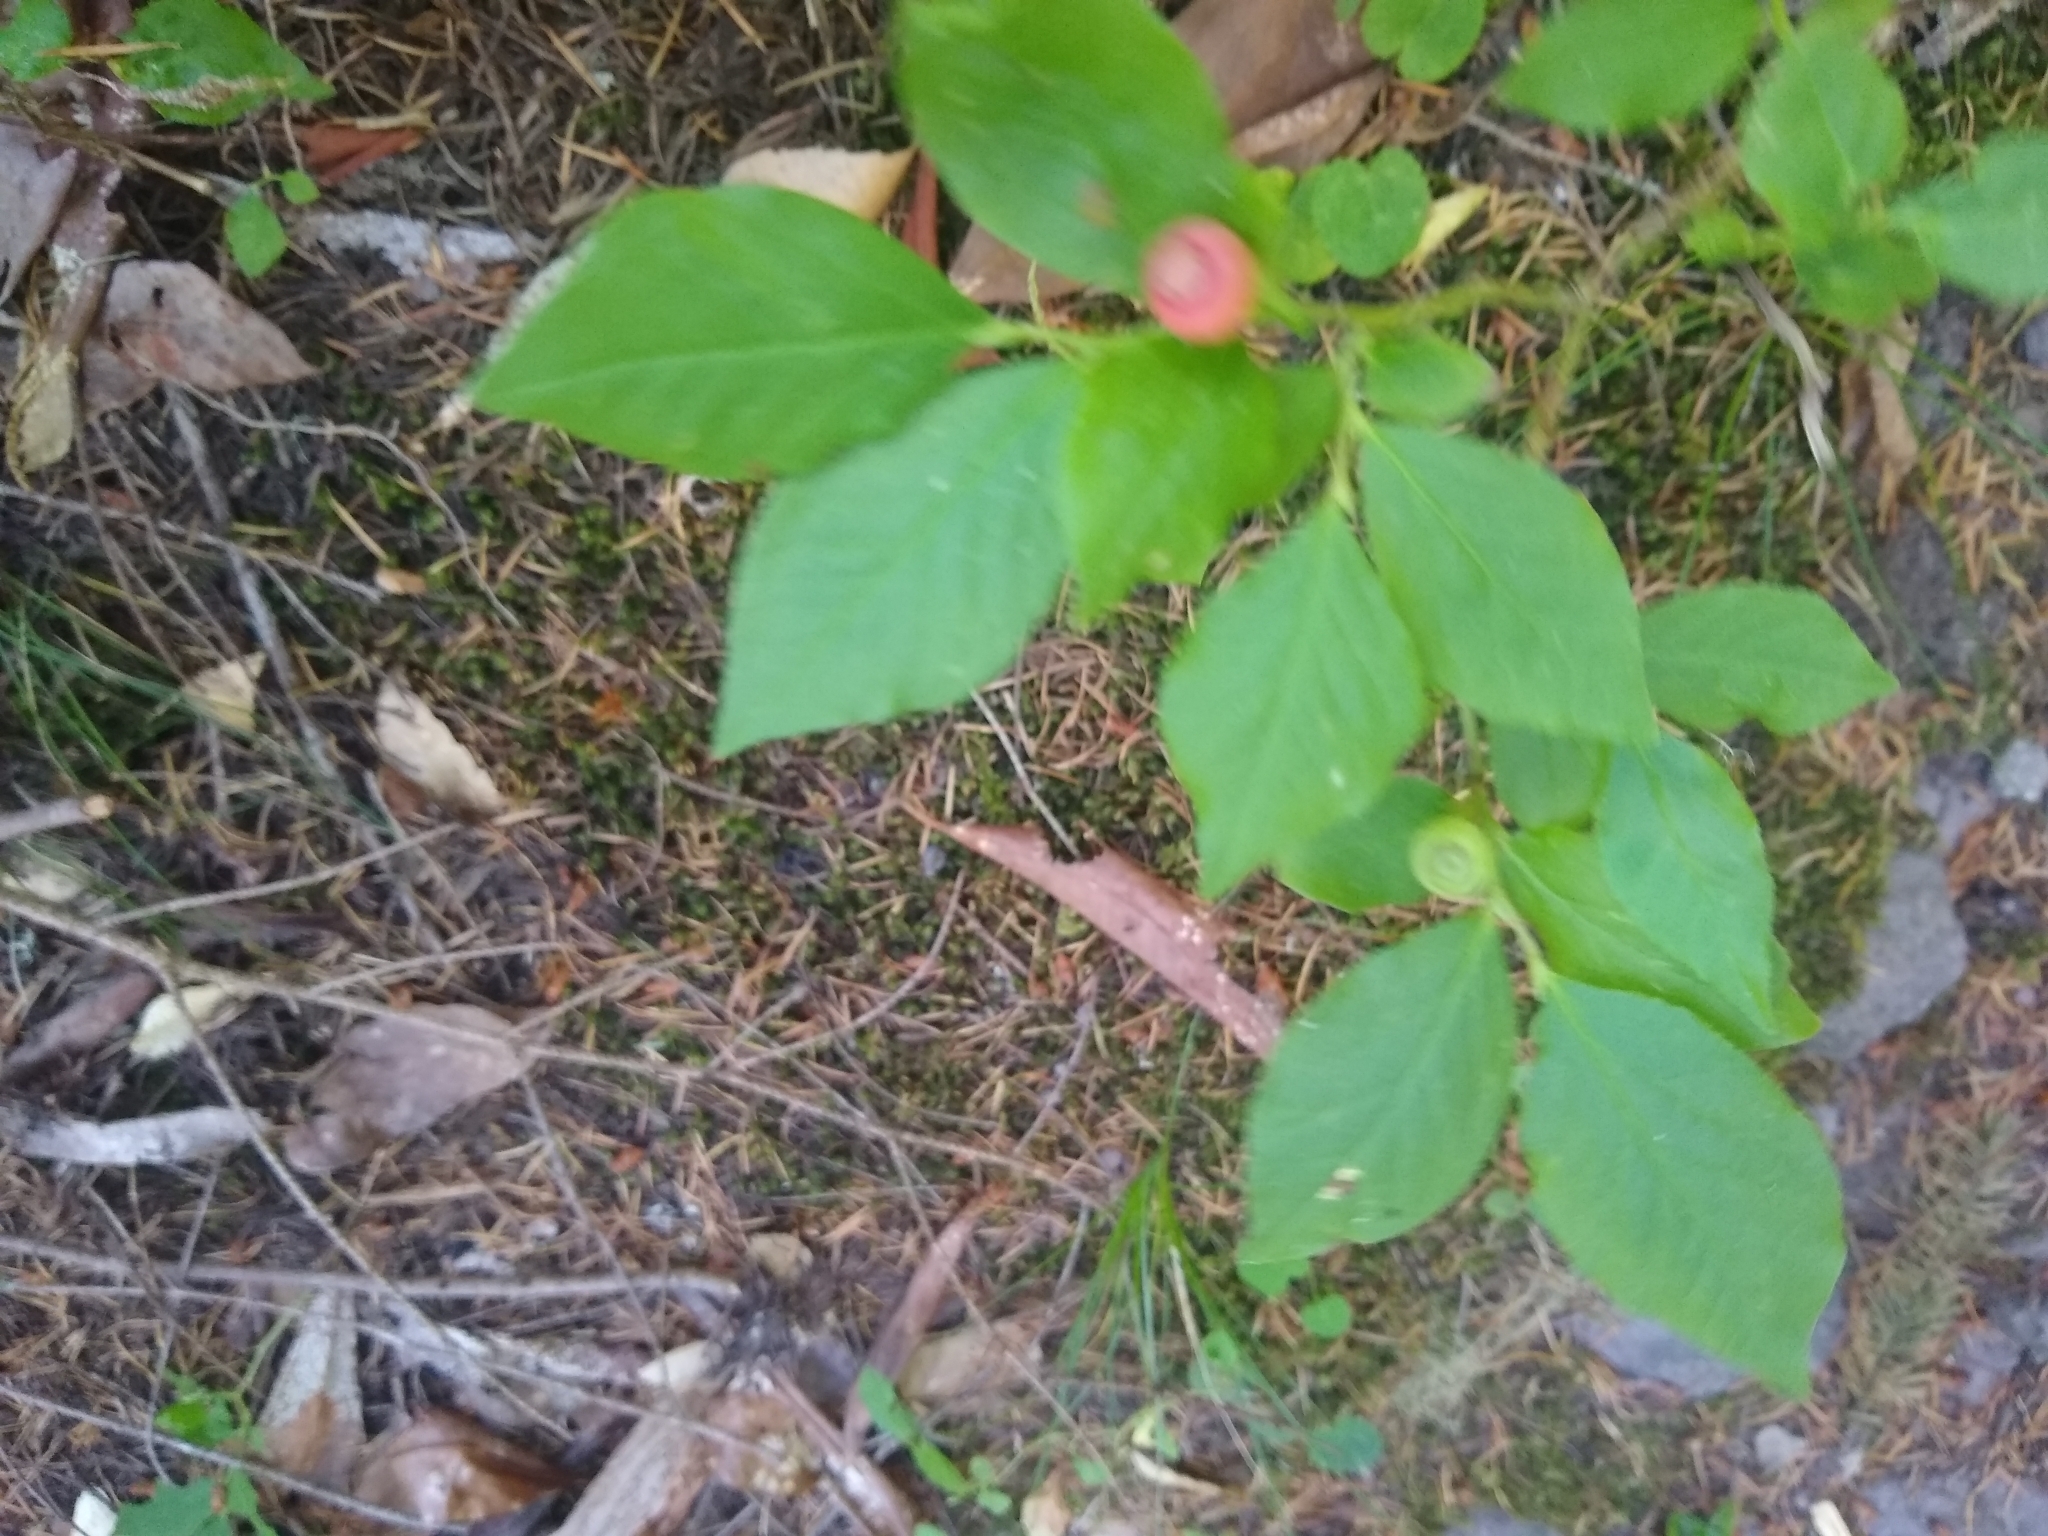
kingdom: Plantae
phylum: Tracheophyta
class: Magnoliopsida
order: Ericales
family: Ericaceae
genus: Vaccinium
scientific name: Vaccinium parvifolium
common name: Red-huckleberry
